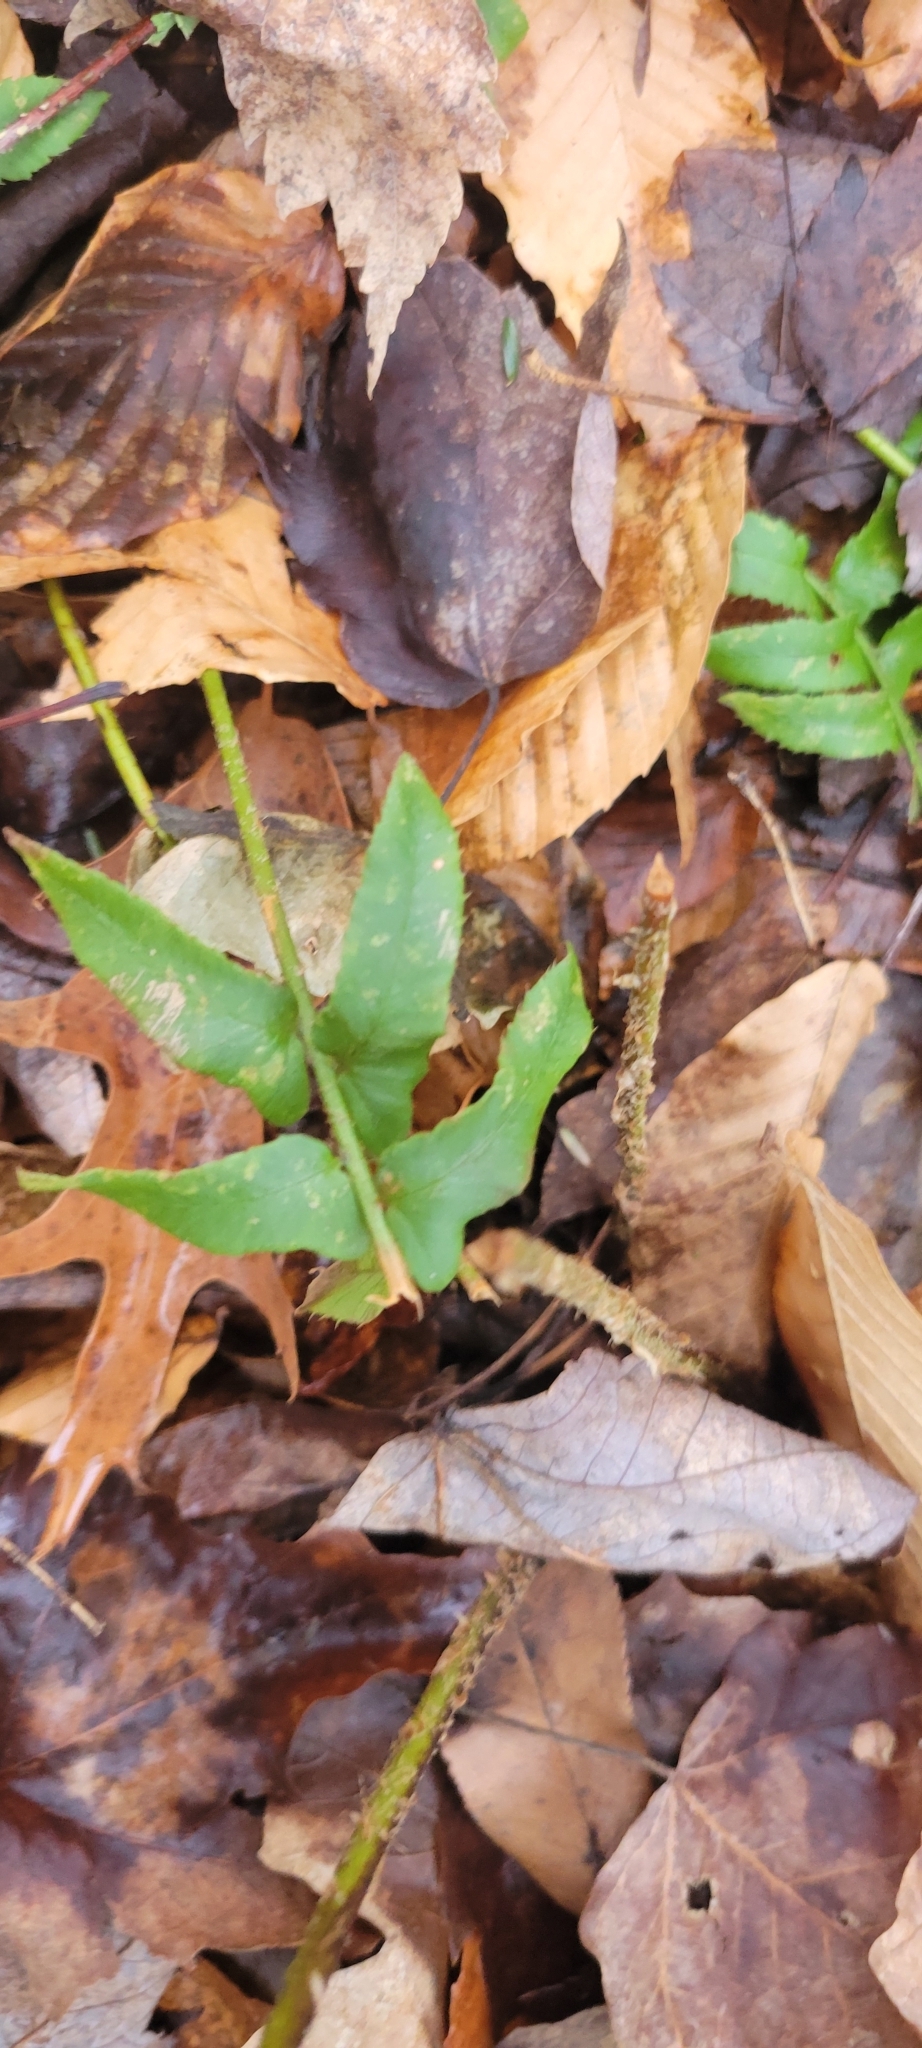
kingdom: Plantae
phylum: Tracheophyta
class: Polypodiopsida
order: Polypodiales
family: Dryopteridaceae
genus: Polystichum
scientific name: Polystichum acrostichoides
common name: Christmas fern
